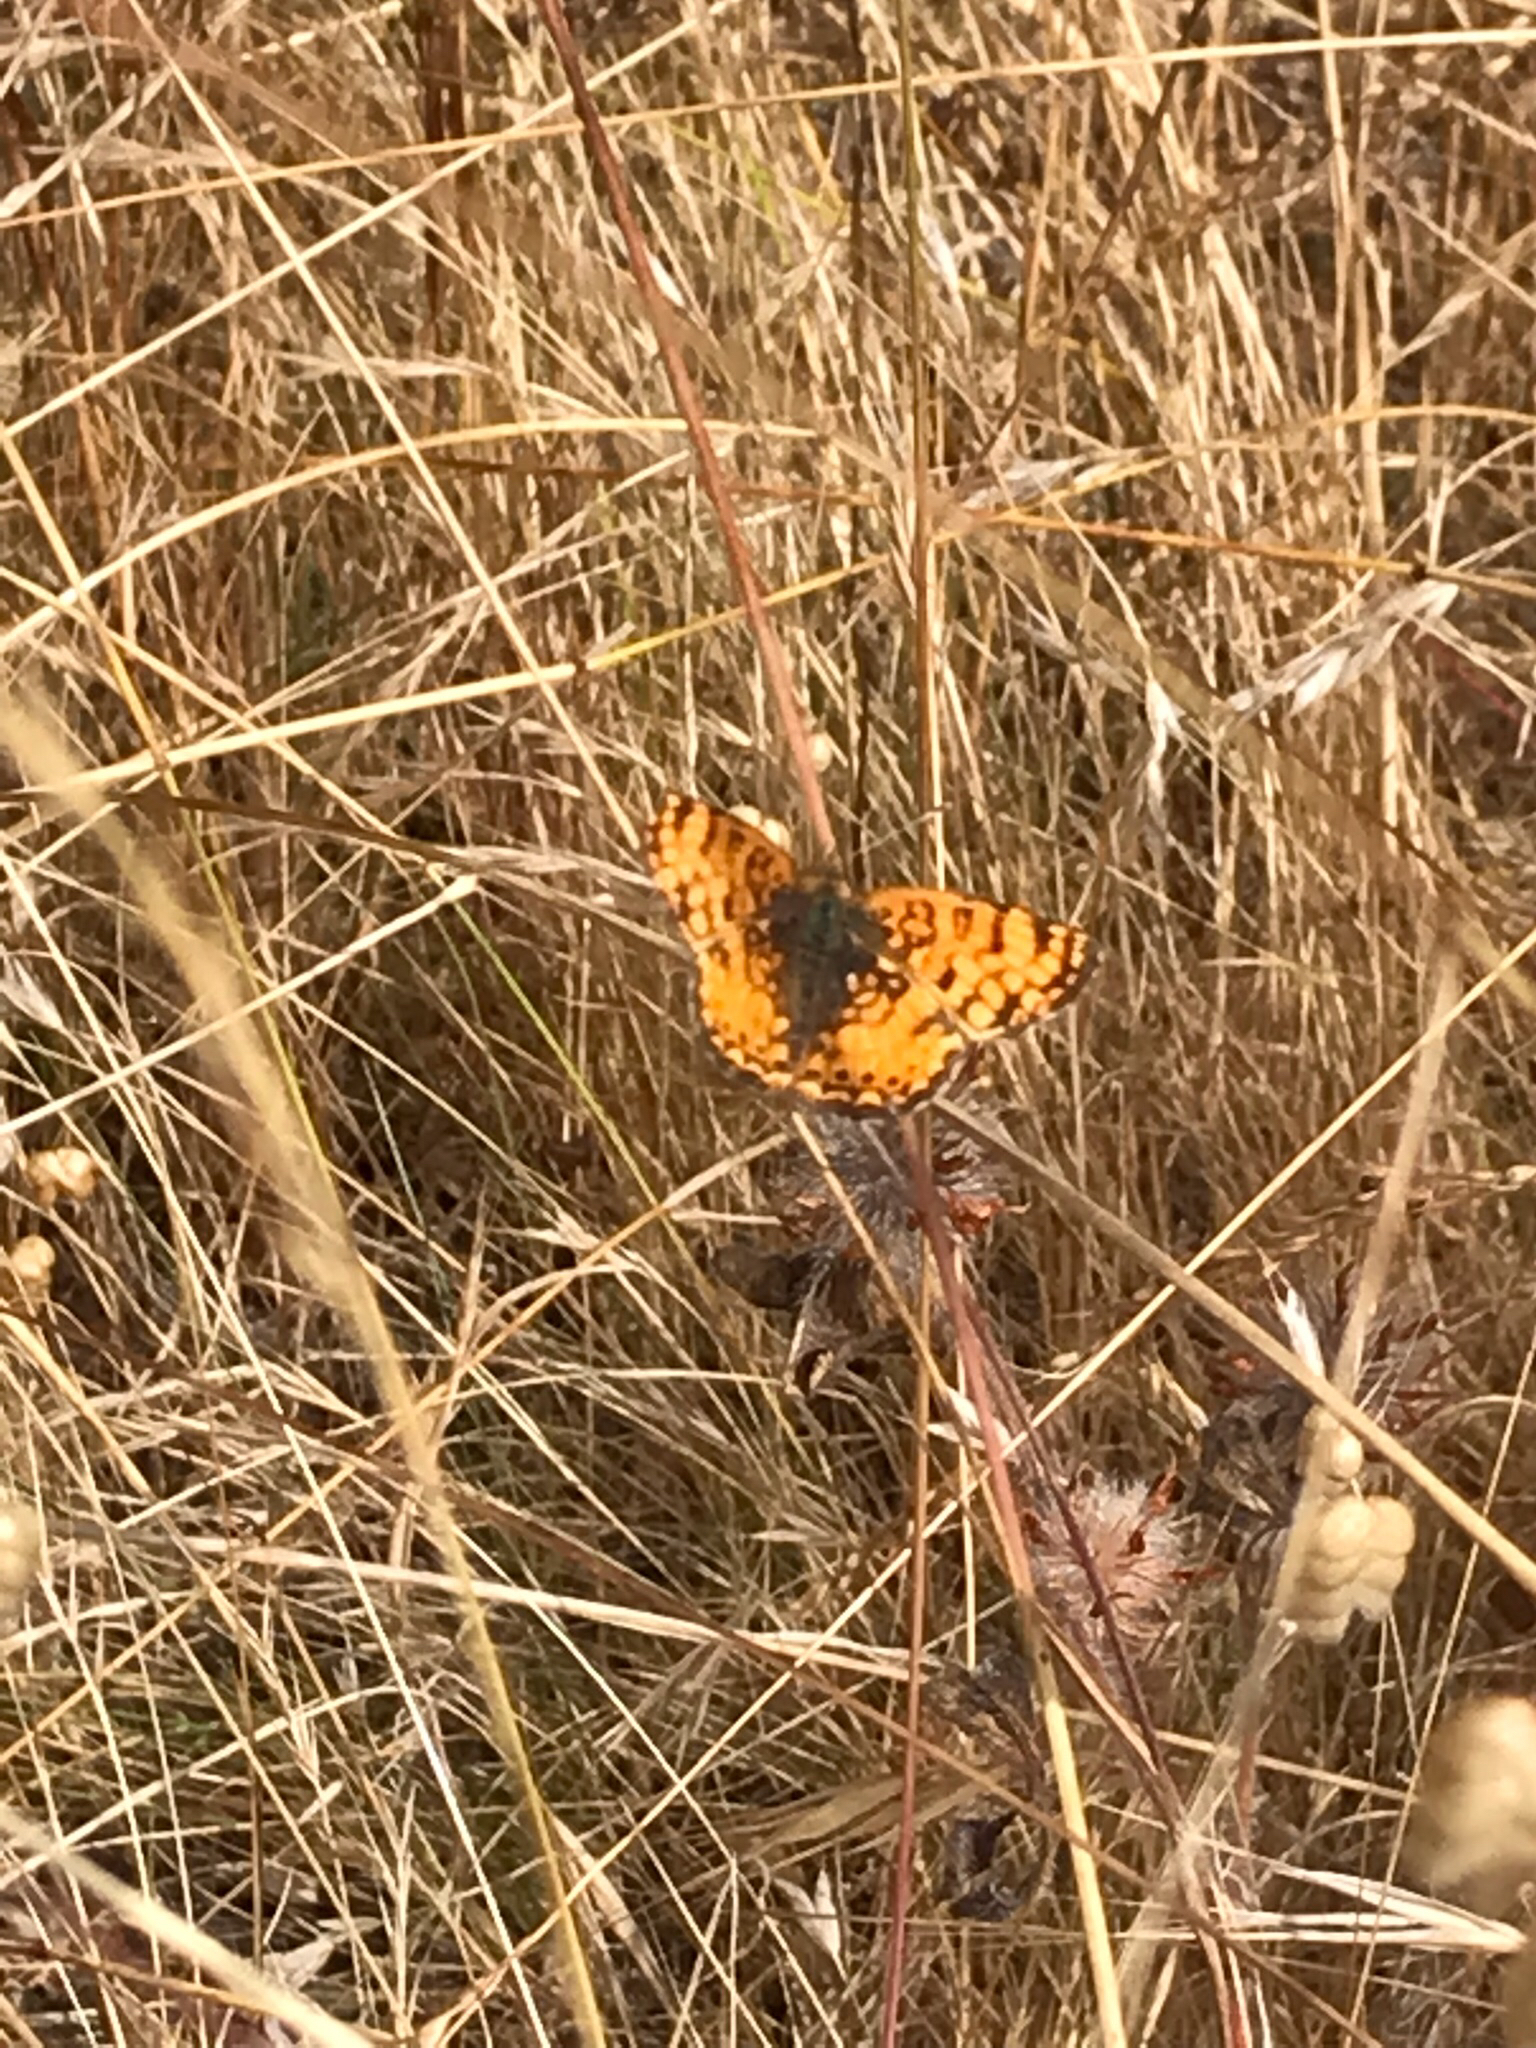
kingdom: Animalia
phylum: Arthropoda
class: Insecta
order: Lepidoptera
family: Nymphalidae
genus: Eresia
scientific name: Eresia aveyrona
